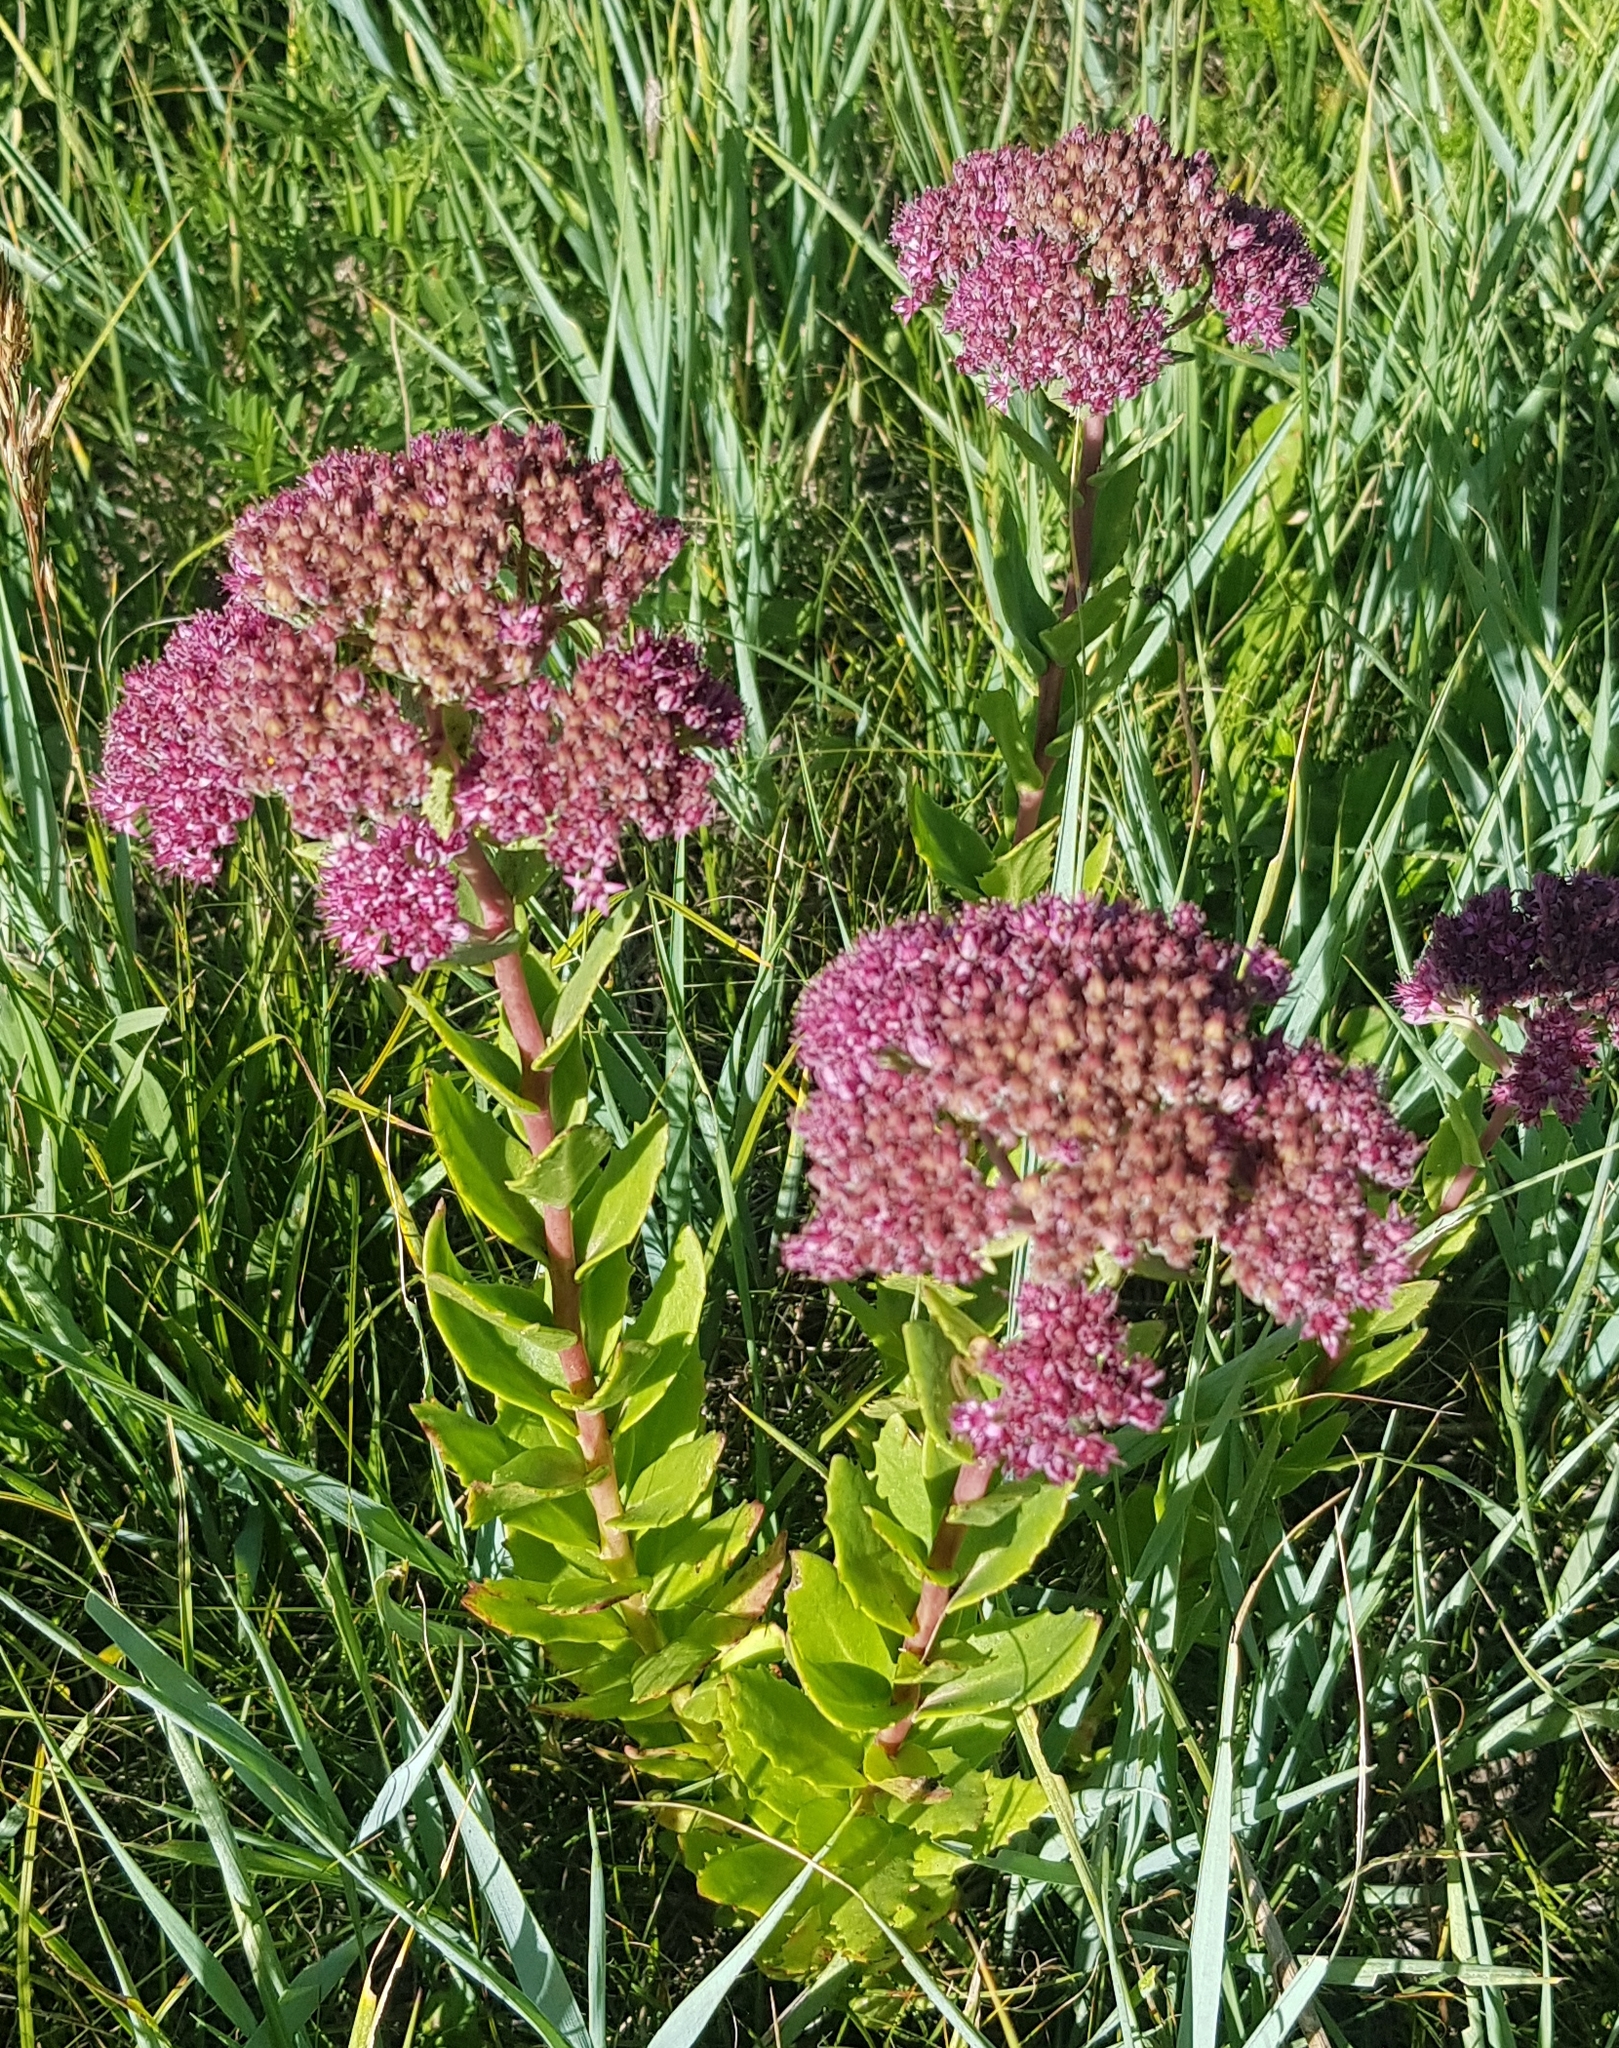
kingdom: Plantae
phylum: Tracheophyta
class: Magnoliopsida
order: Saxifragales
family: Crassulaceae
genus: Hylotelephium
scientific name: Hylotelephium telephium
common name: Live-forever
